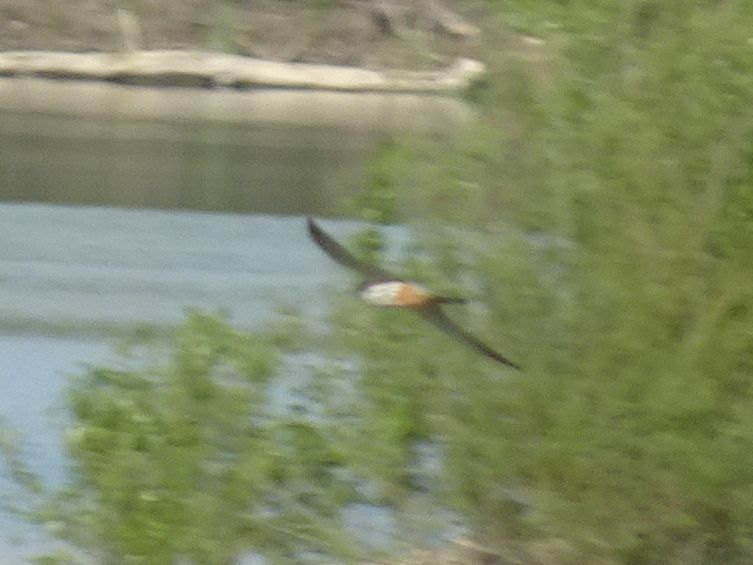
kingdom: Animalia
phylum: Chordata
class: Aves
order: Falconiformes
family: Falconidae
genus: Falco
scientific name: Falco subbuteo
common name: Eurasian hobby
